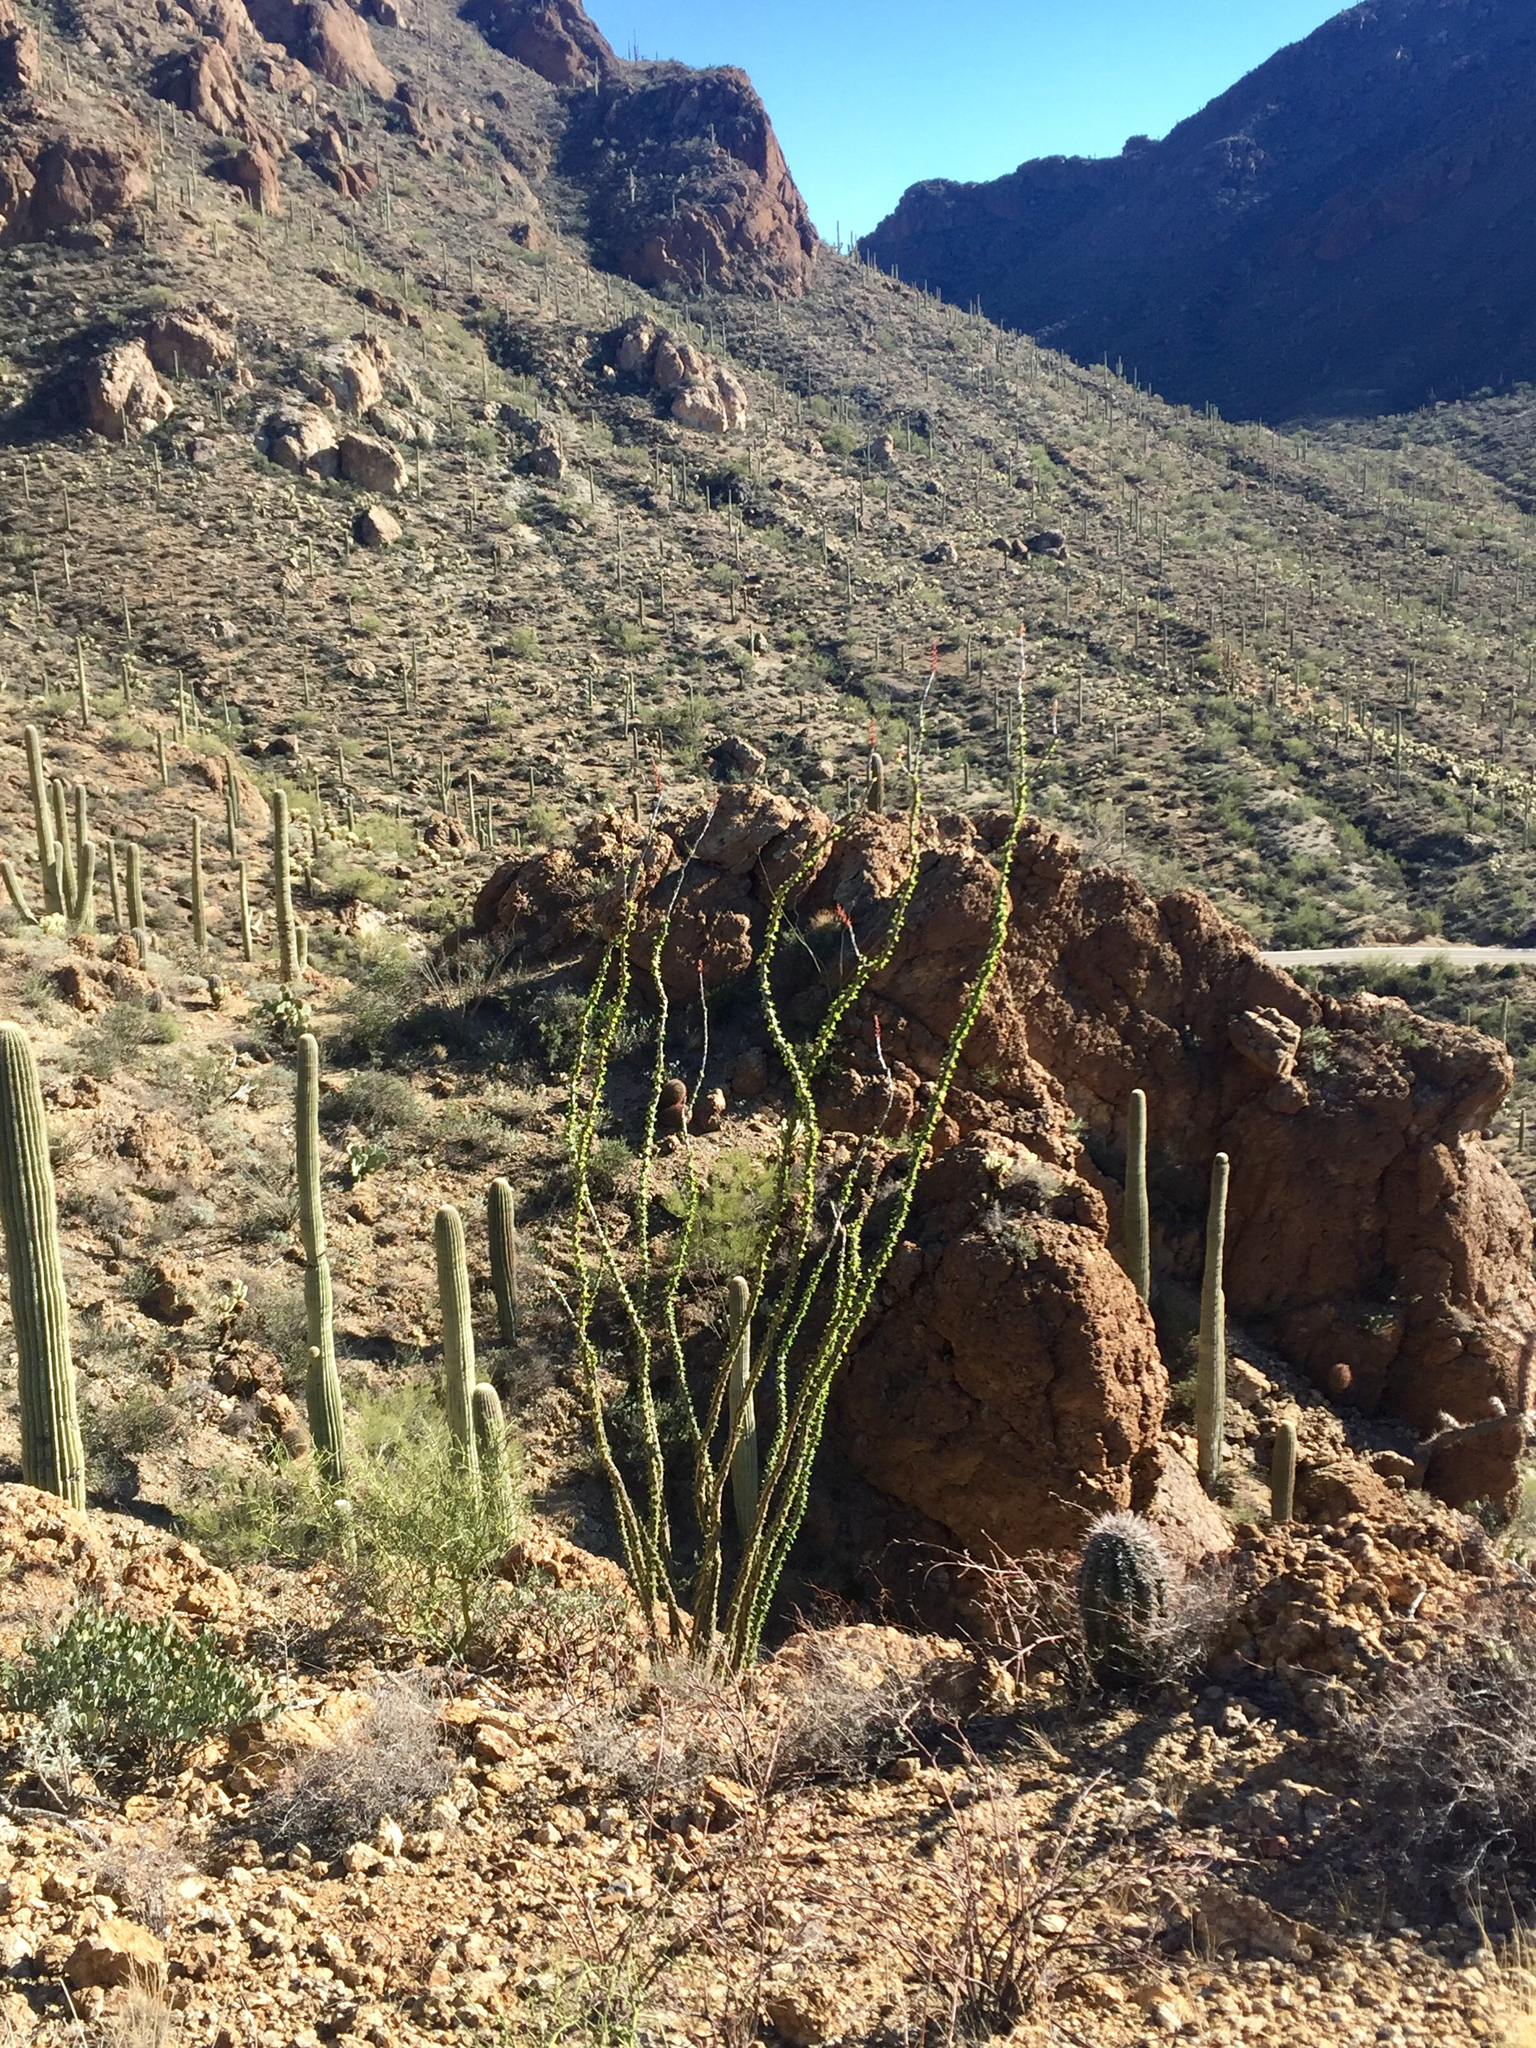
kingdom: Plantae
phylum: Tracheophyta
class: Magnoliopsida
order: Ericales
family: Fouquieriaceae
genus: Fouquieria
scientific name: Fouquieria splendens
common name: Vine-cactus
